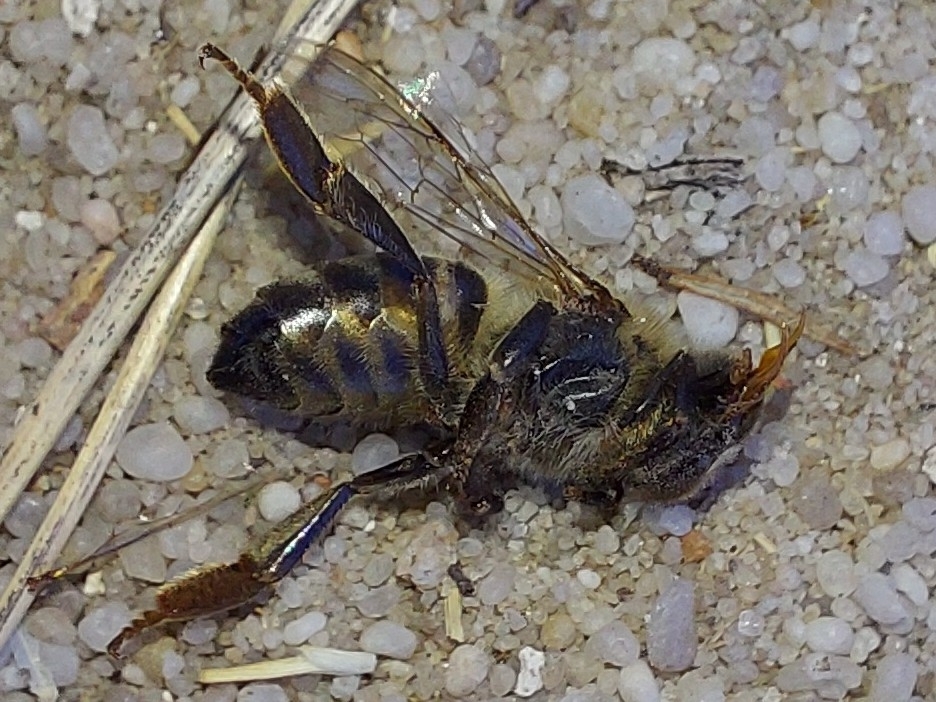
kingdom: Animalia
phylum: Arthropoda
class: Insecta
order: Hymenoptera
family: Apidae
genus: Apis
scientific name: Apis mellifera
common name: Honey bee
